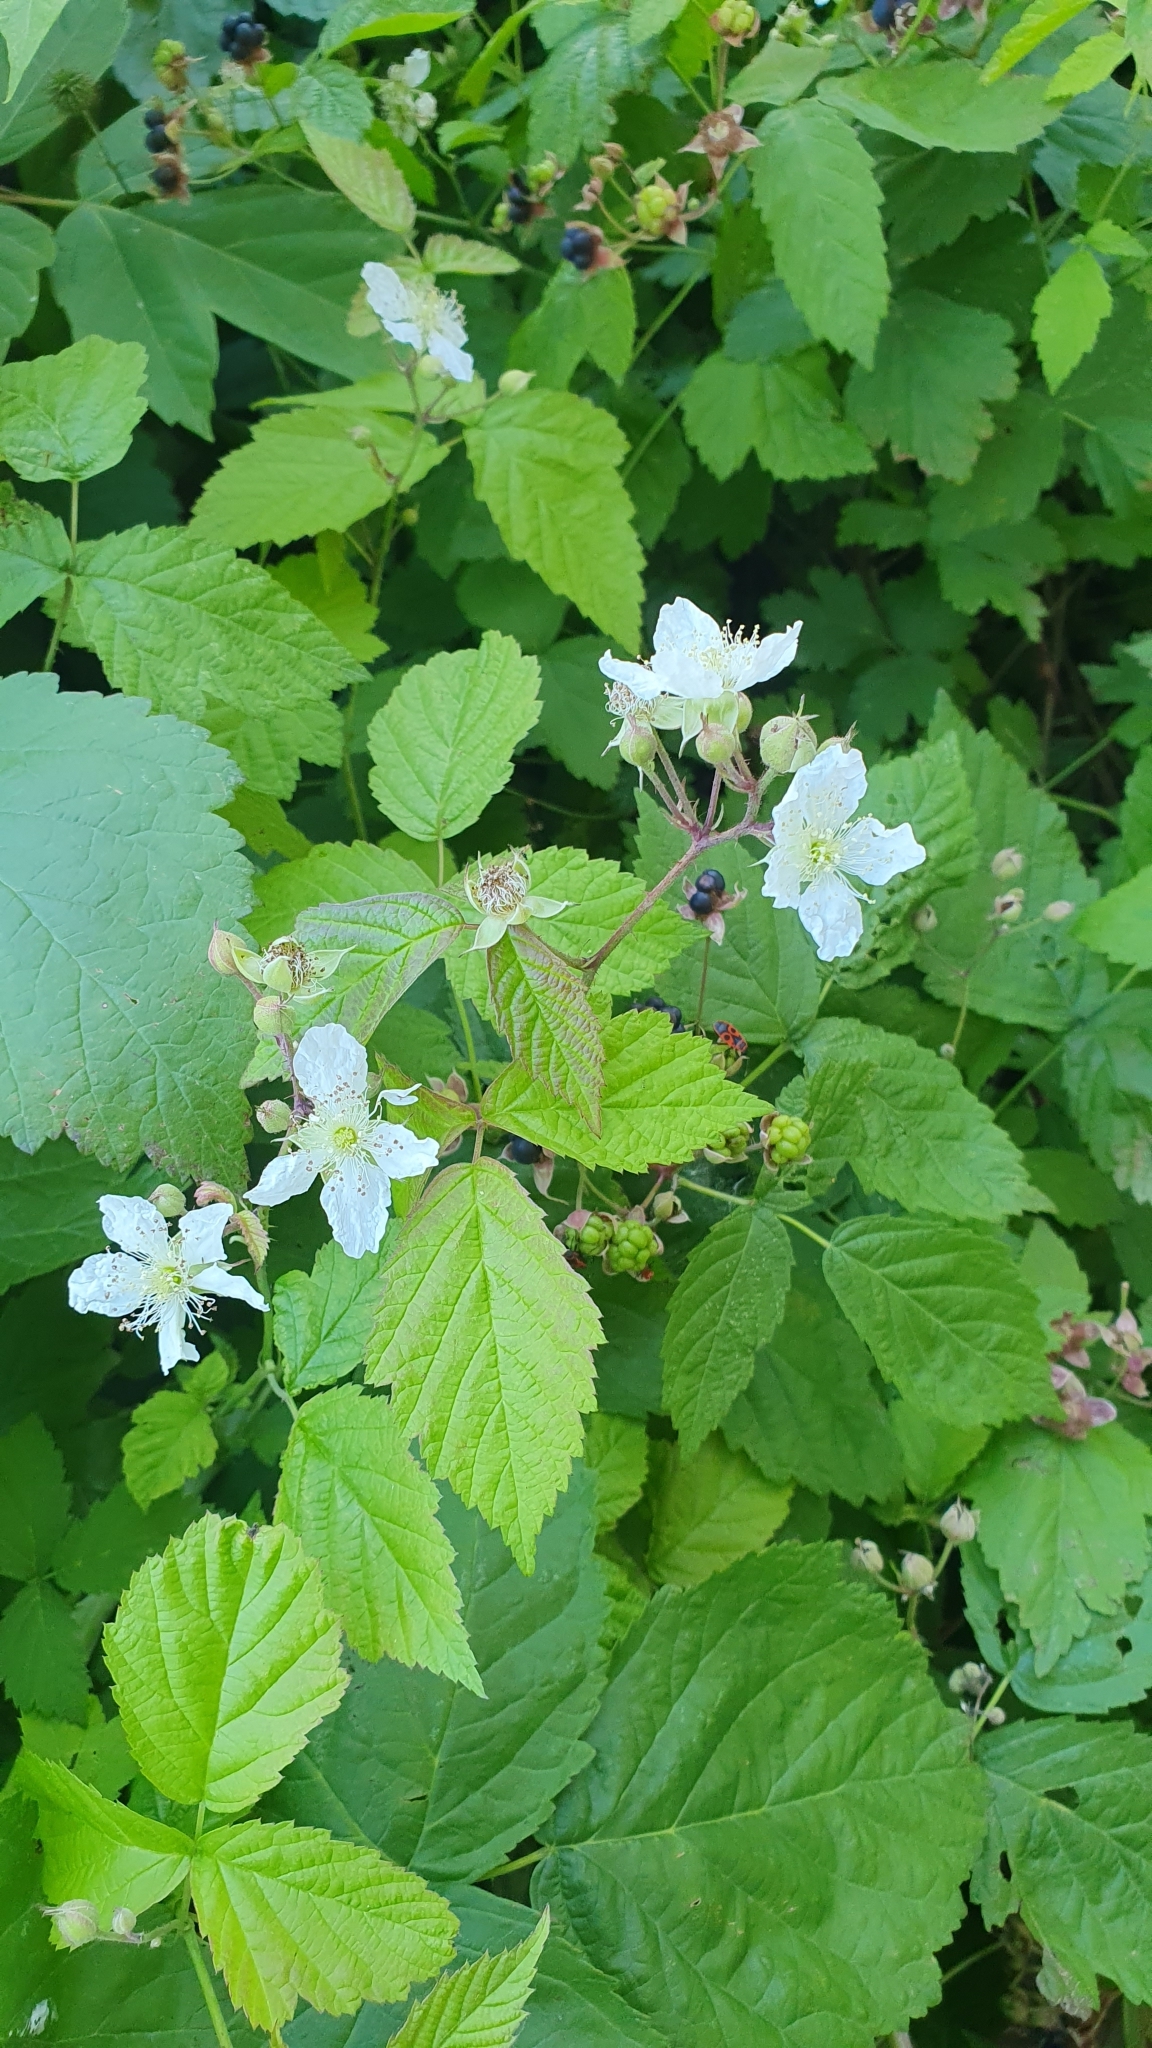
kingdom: Plantae
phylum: Tracheophyta
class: Magnoliopsida
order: Rosales
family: Rosaceae
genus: Rubus
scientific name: Rubus caesius
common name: Dewberry
